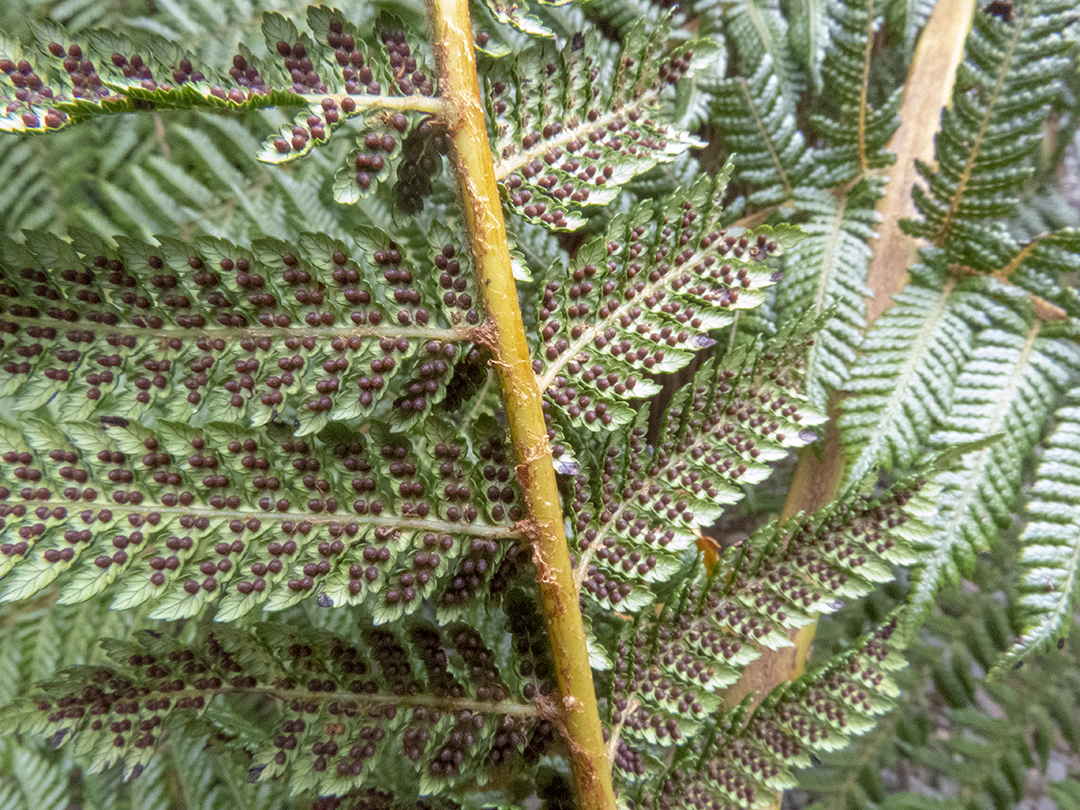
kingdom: Plantae
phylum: Tracheophyta
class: Polypodiopsida
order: Cyatheales
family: Cyatheaceae
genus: Alsophila
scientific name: Alsophila smithii
